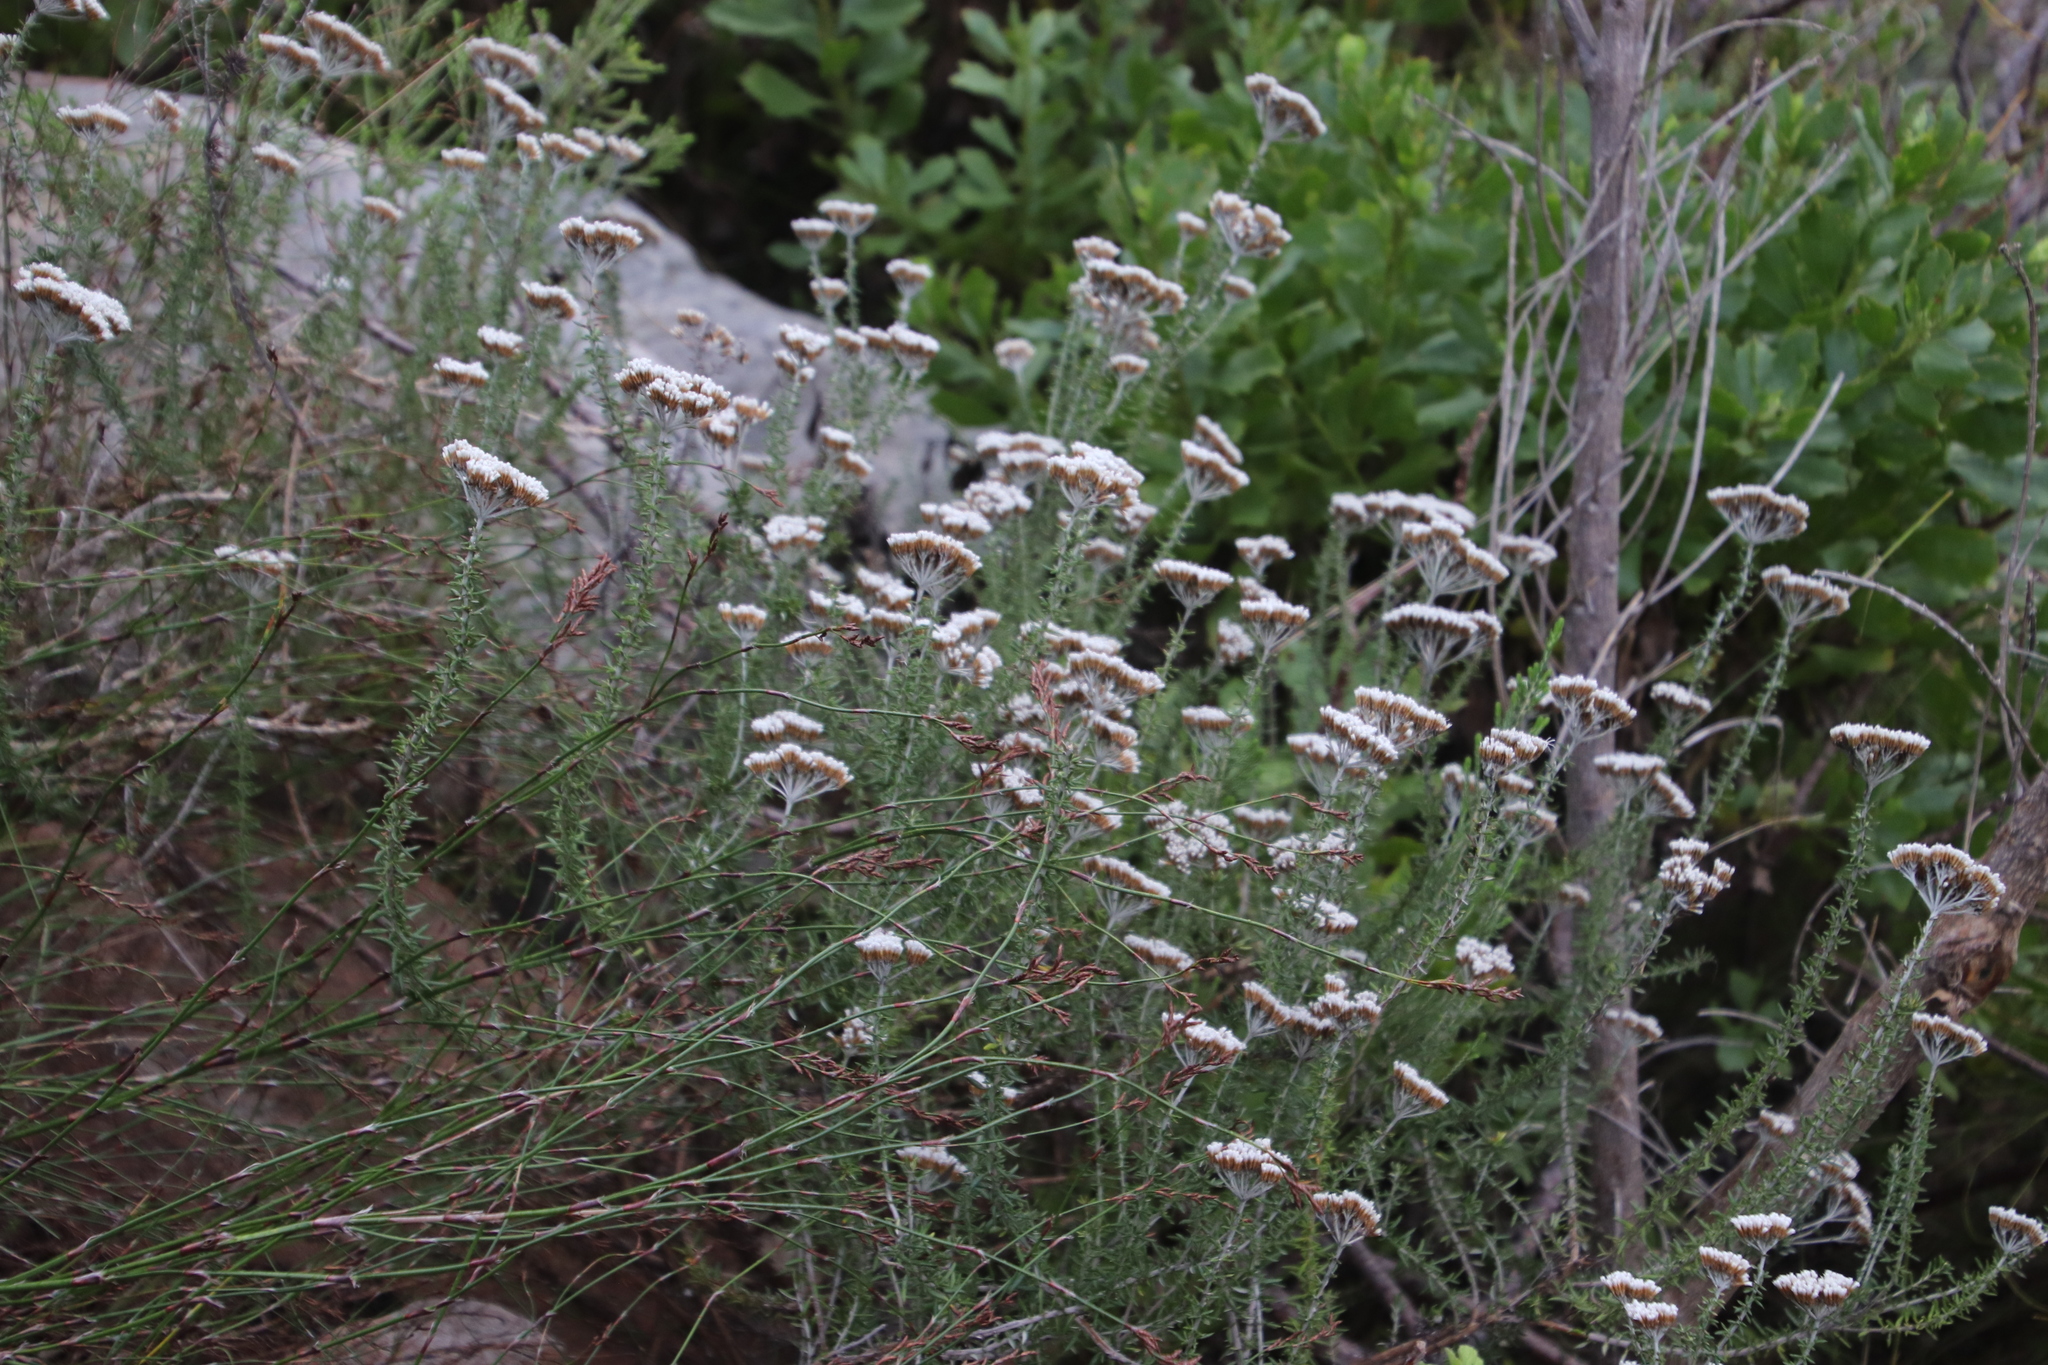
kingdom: Plantae
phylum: Tracheophyta
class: Magnoliopsida
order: Asterales
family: Asteraceae
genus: Metalasia
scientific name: Metalasia densa
